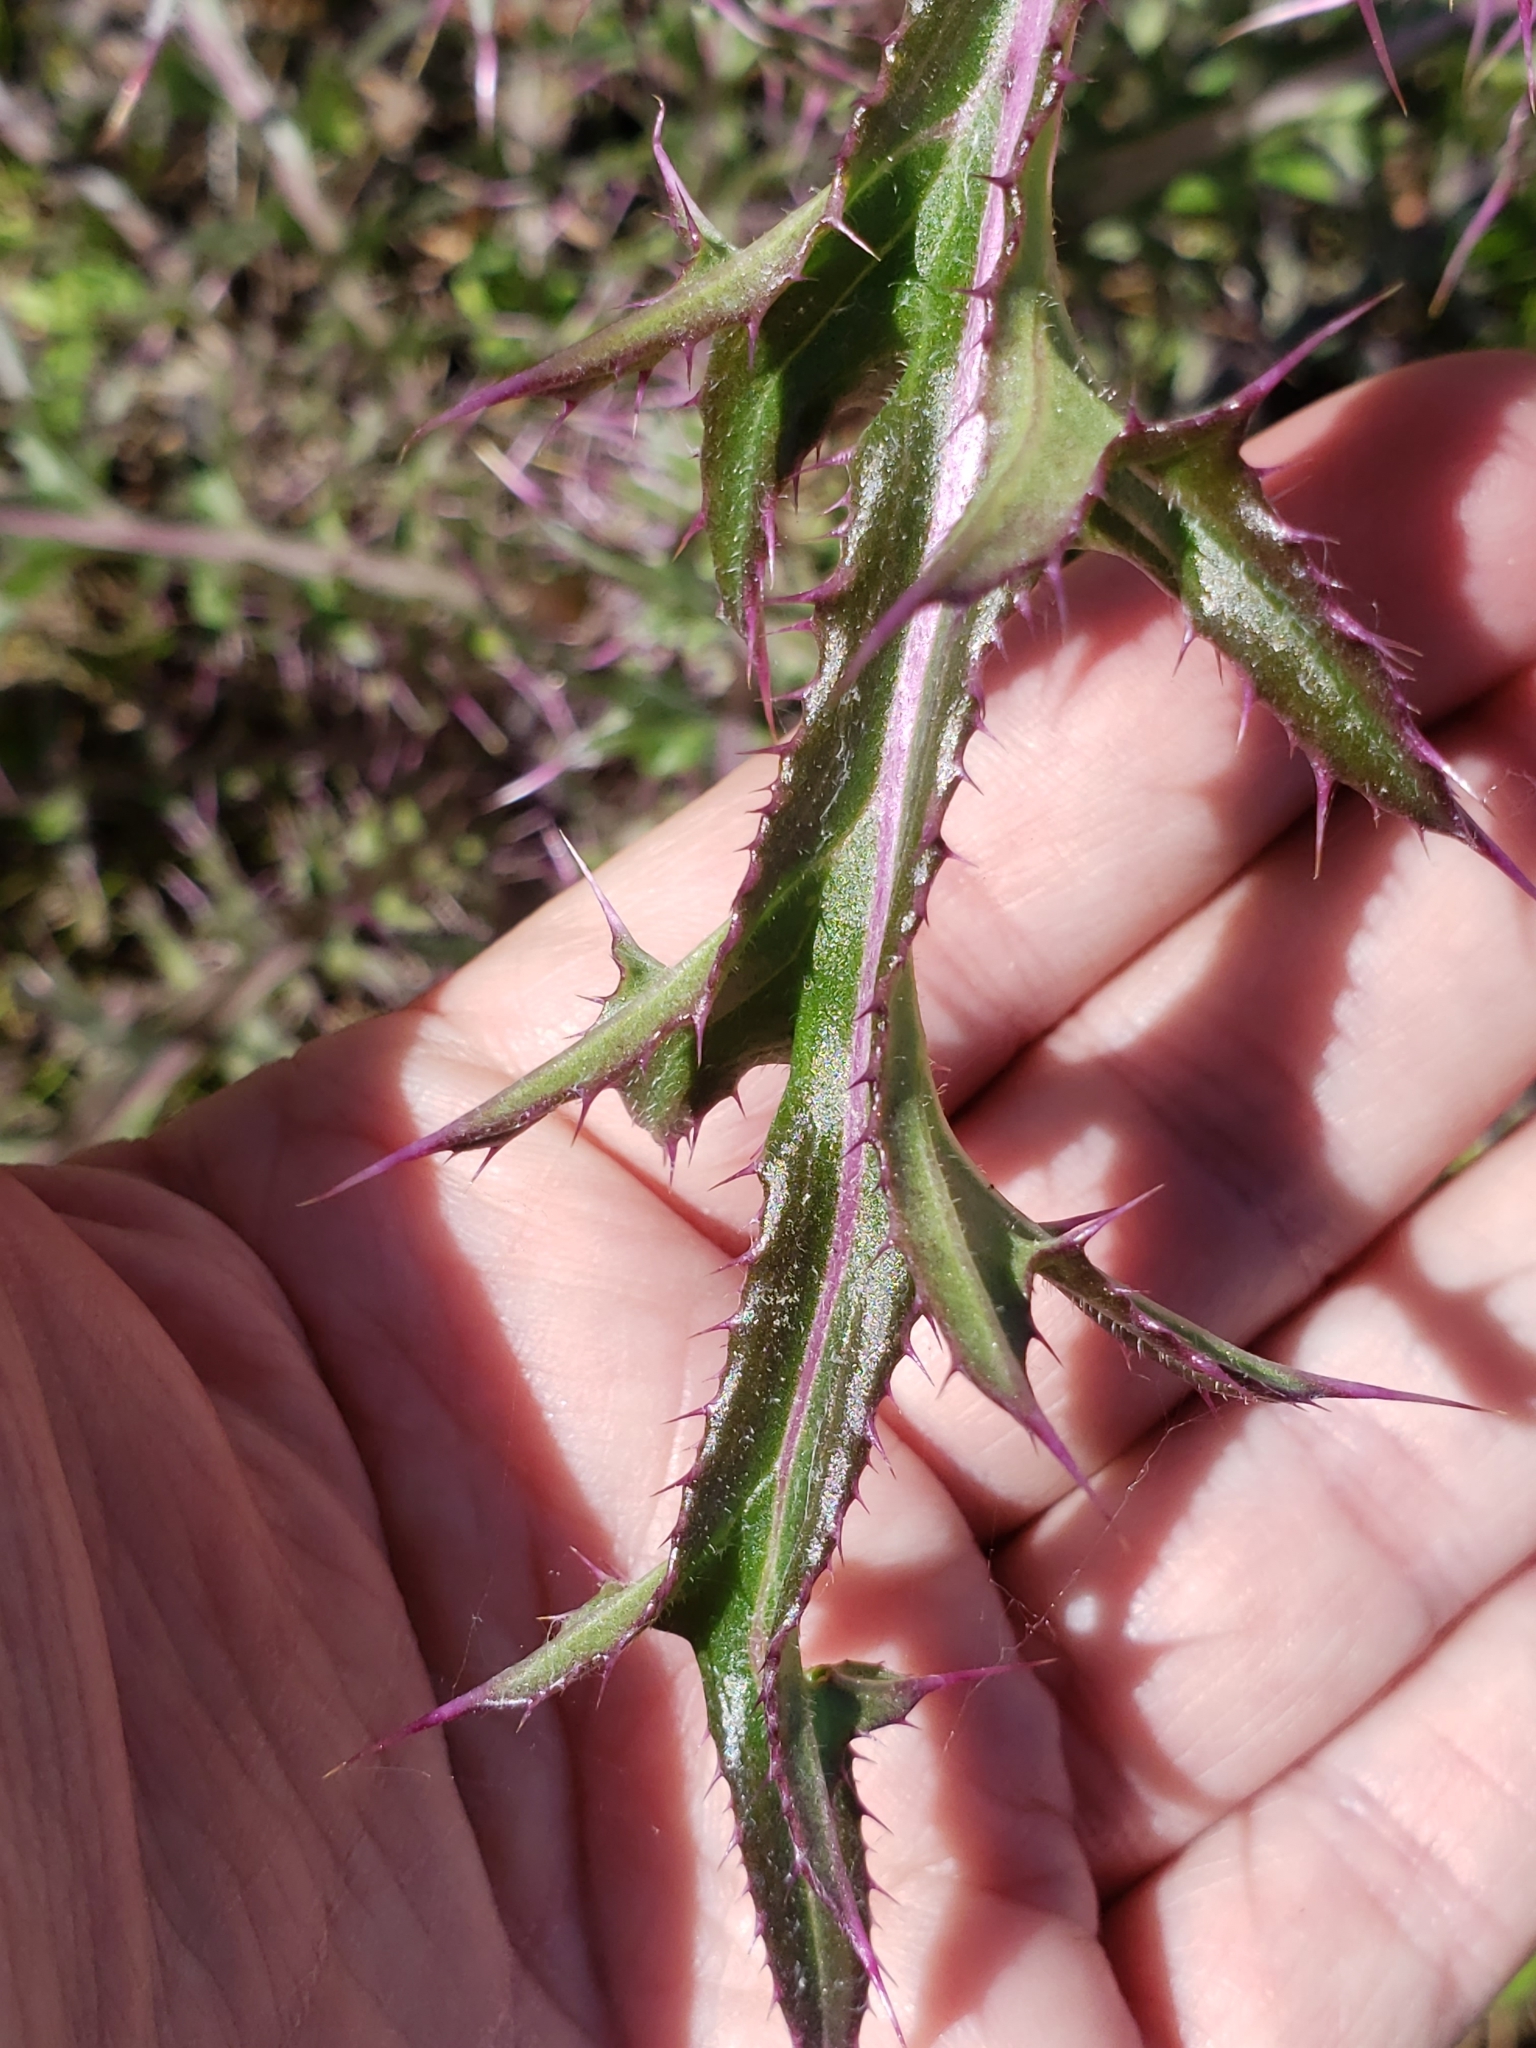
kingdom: Plantae
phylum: Tracheophyta
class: Magnoliopsida
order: Asterales
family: Asteraceae
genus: Cirsium
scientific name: Cirsium horridulum
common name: Bristly thistle
